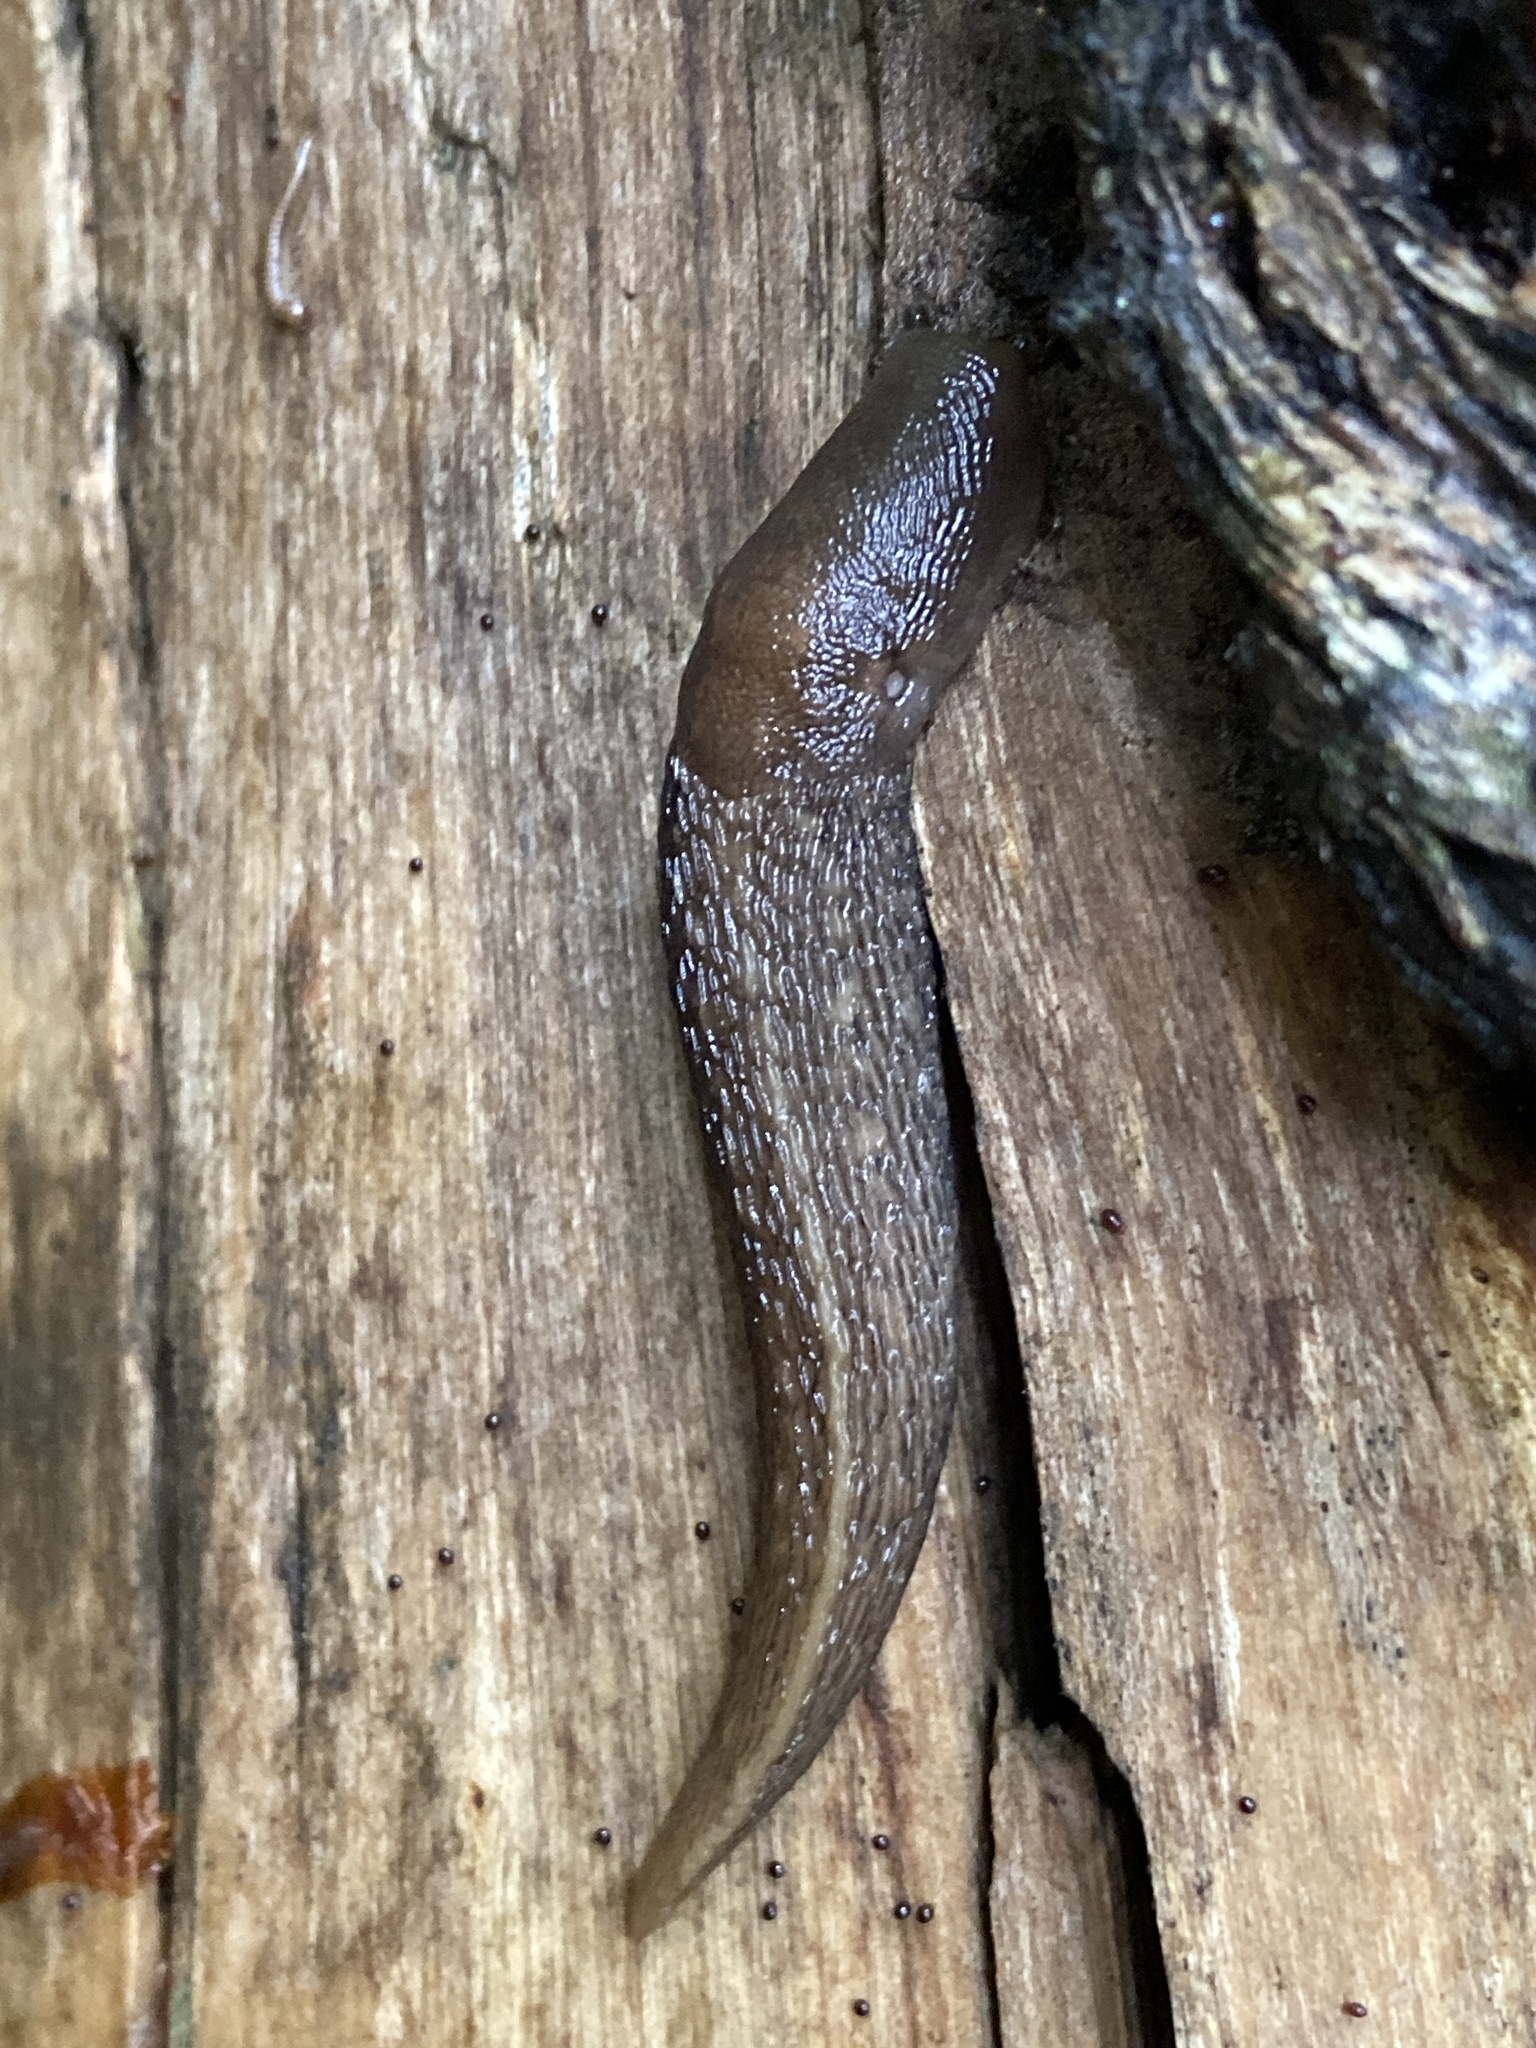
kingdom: Animalia
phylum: Mollusca
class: Gastropoda
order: Stylommatophora
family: Limacidae
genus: Limax
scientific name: Limax cinereoniger
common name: Ash-black slug
